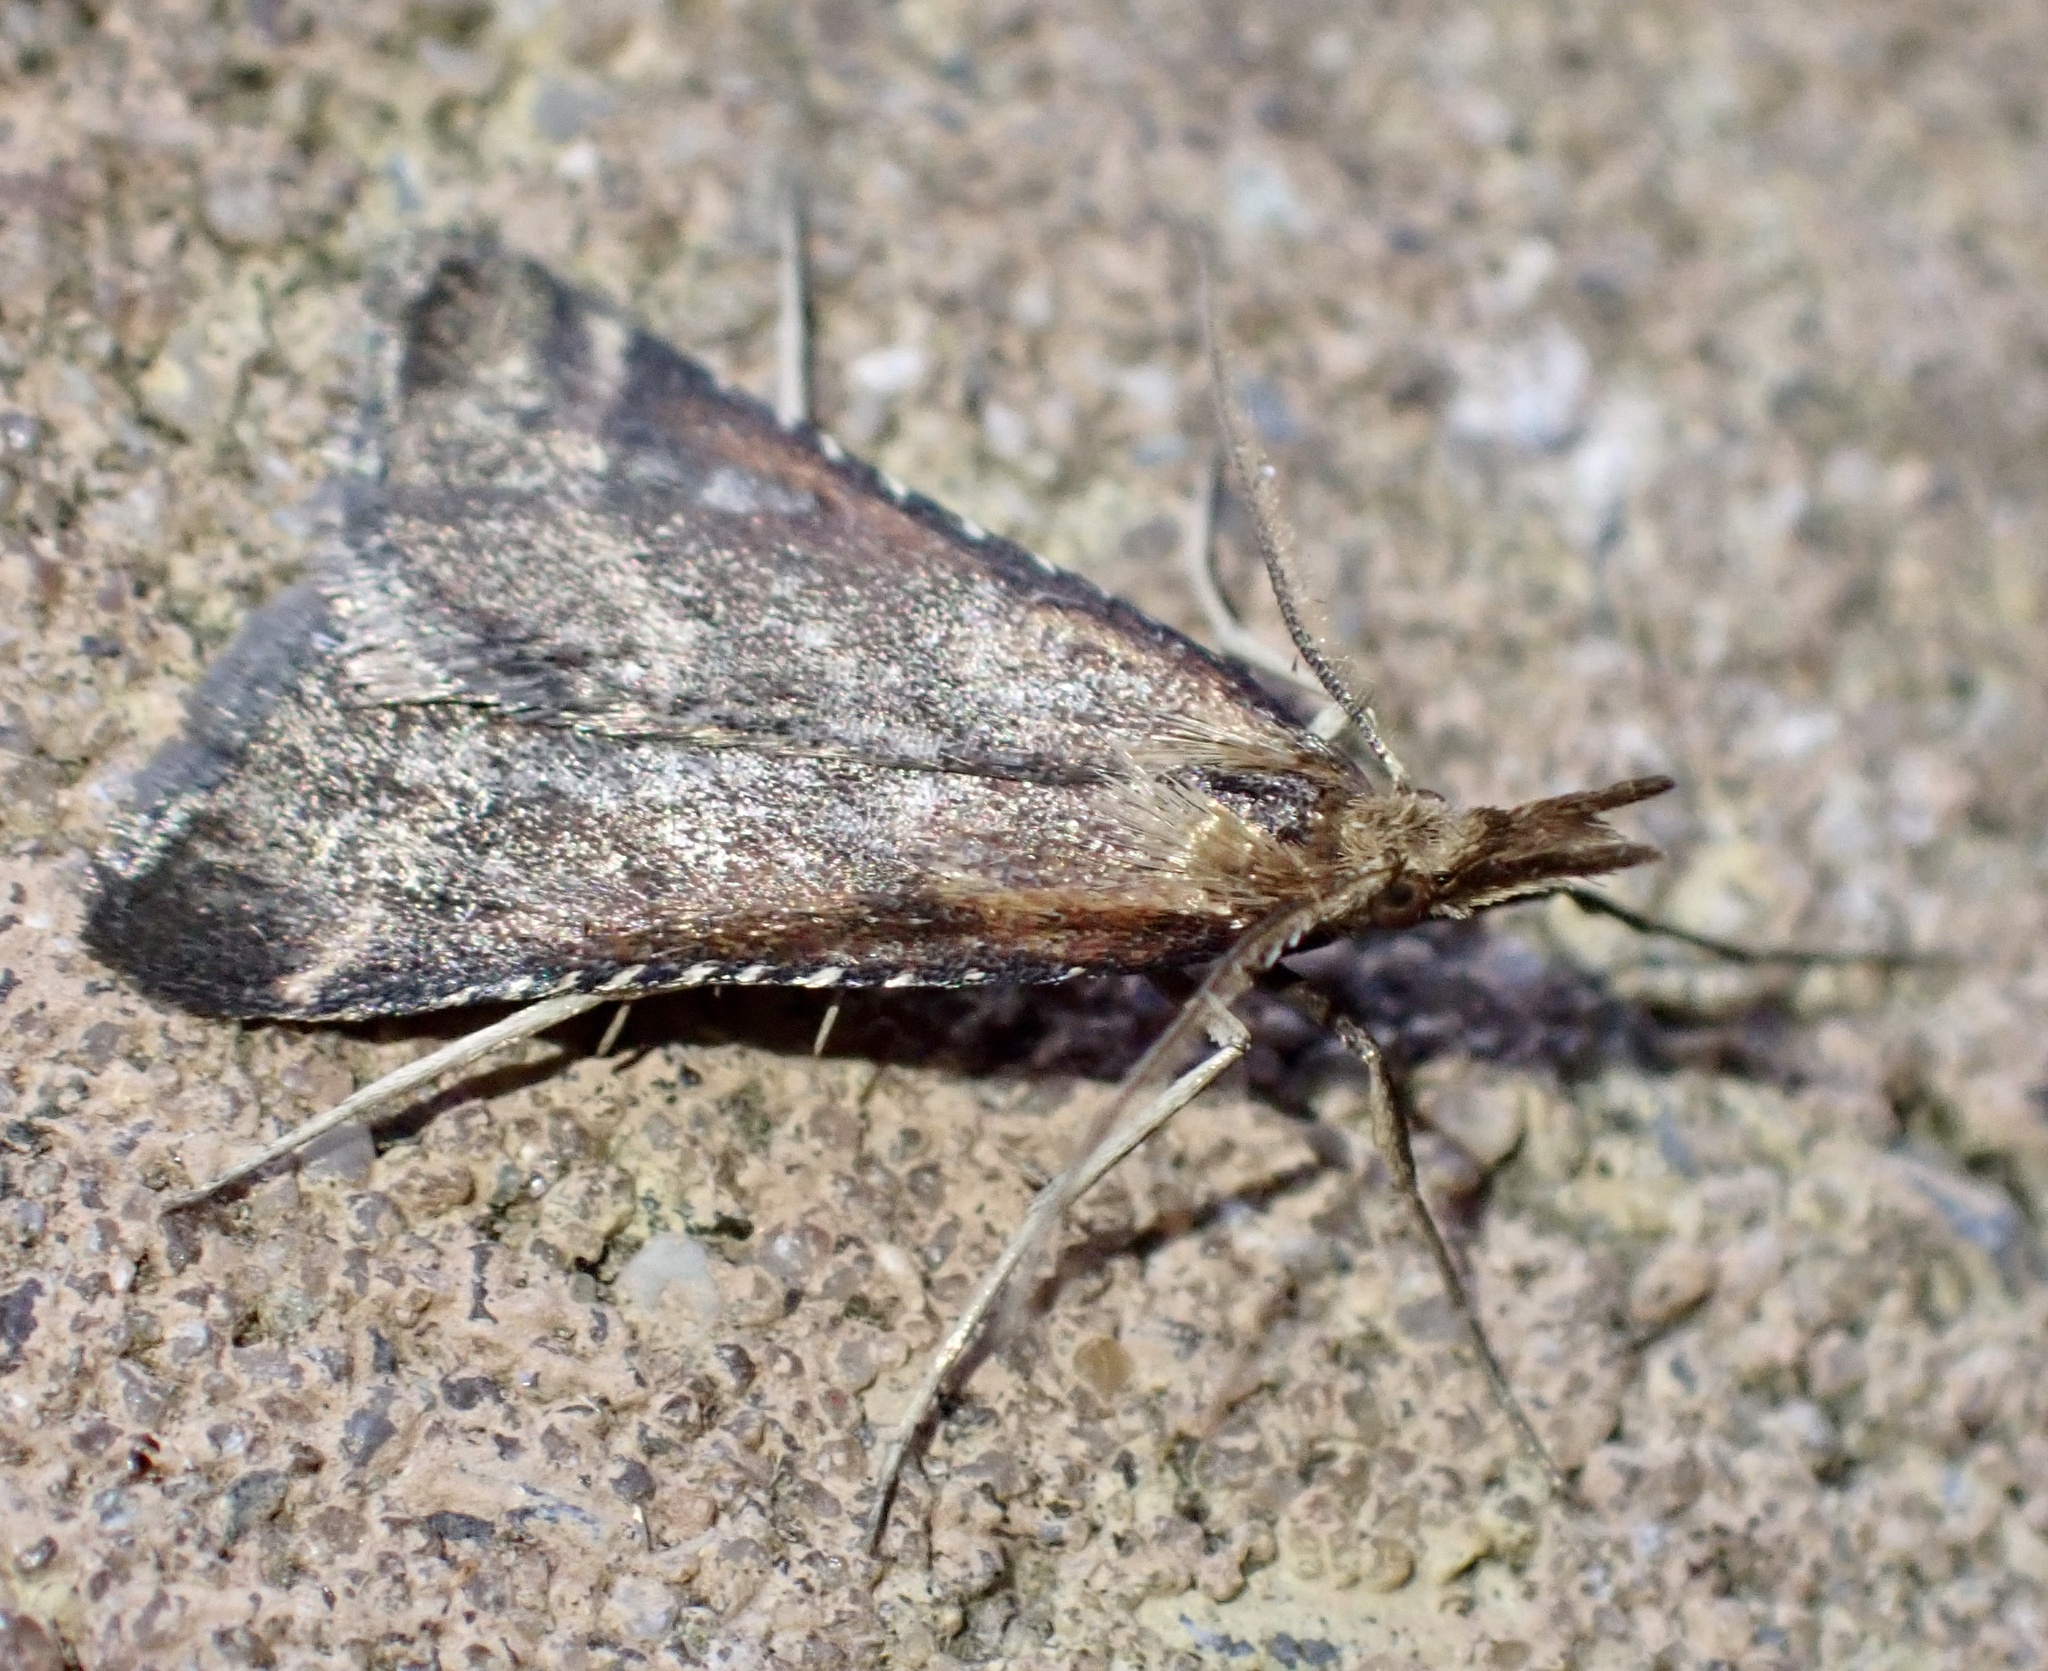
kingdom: Animalia
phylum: Arthropoda
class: Insecta
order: Lepidoptera
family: Pyralidae
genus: Synaphe
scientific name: Synaphe punctalis
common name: Long-legged tabby
